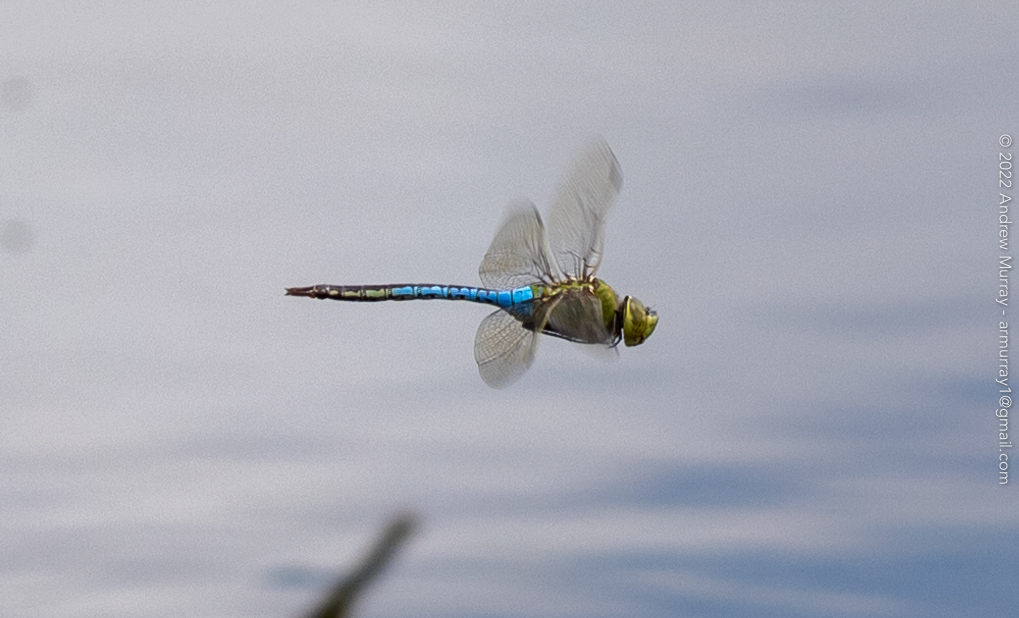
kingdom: Animalia
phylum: Arthropoda
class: Insecta
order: Odonata
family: Aeshnidae
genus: Anax
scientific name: Anax junius
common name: Common green darner
